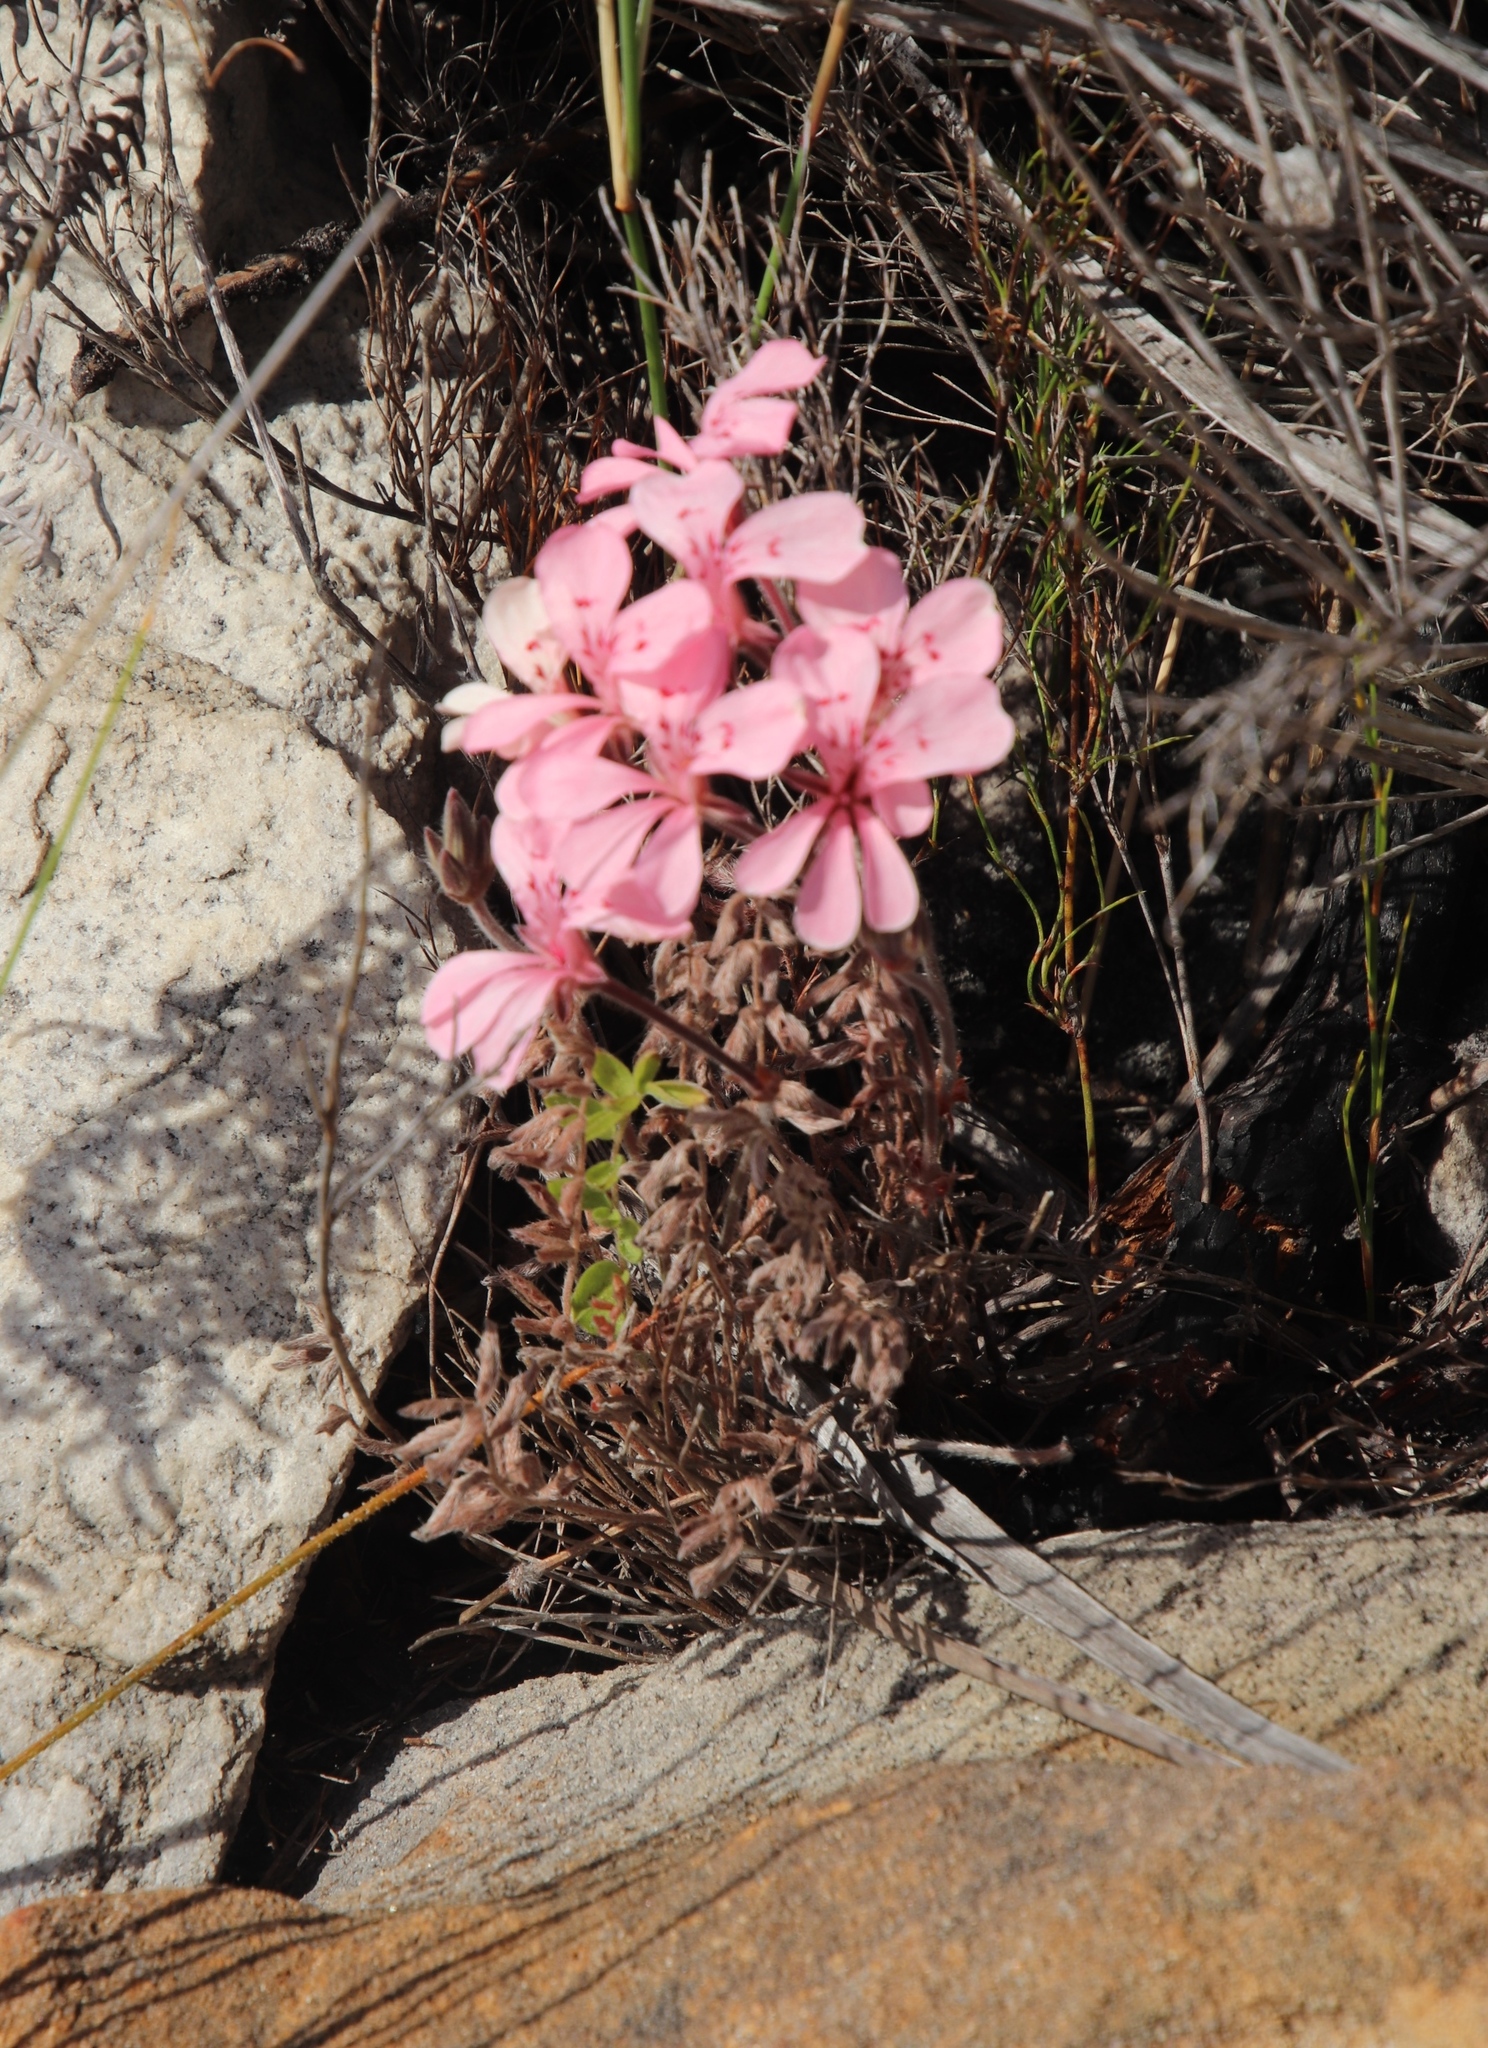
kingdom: Plantae
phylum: Tracheophyta
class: Magnoliopsida
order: Geraniales
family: Geraniaceae
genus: Pelargonium
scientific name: Pelargonium pinnatum
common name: Pinnated pelargonium
